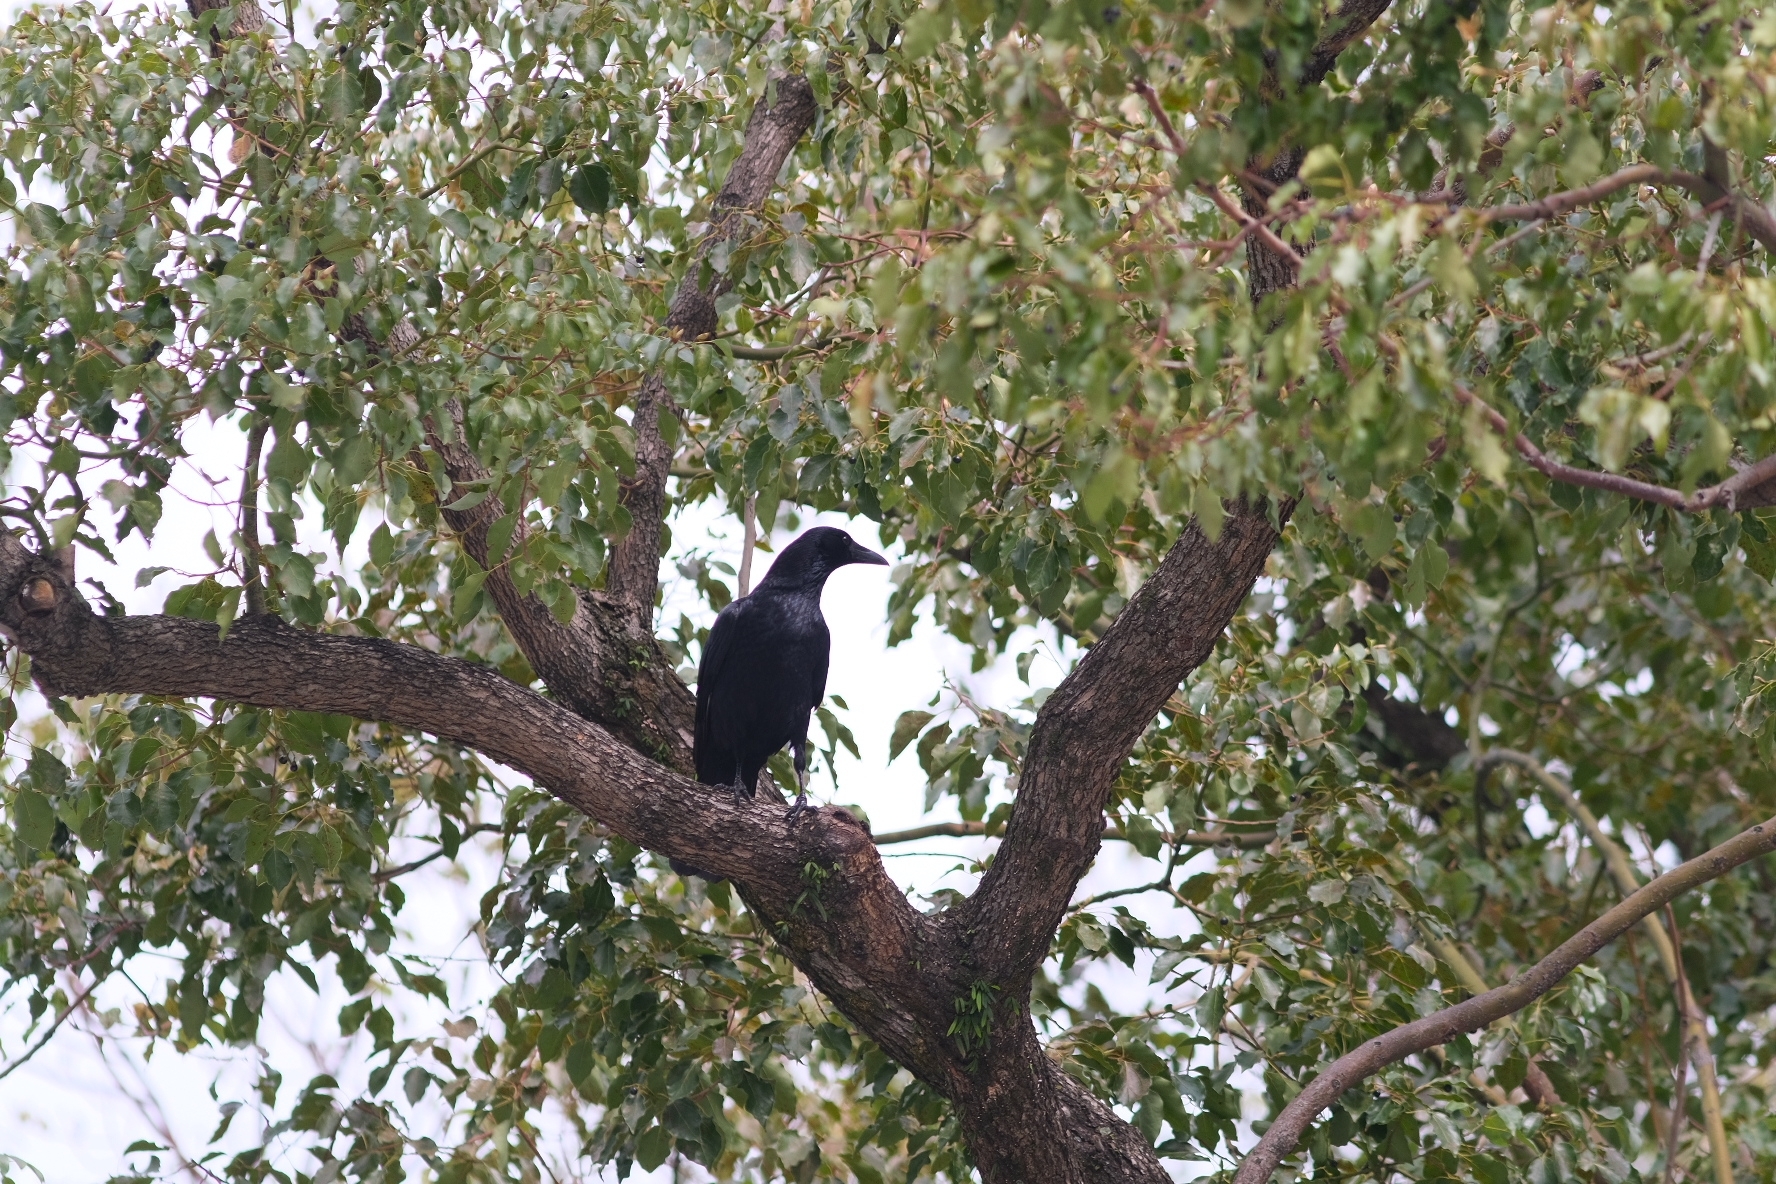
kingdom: Animalia
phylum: Chordata
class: Aves
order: Passeriformes
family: Corvidae
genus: Corvus
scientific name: Corvus corone
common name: Carrion crow
